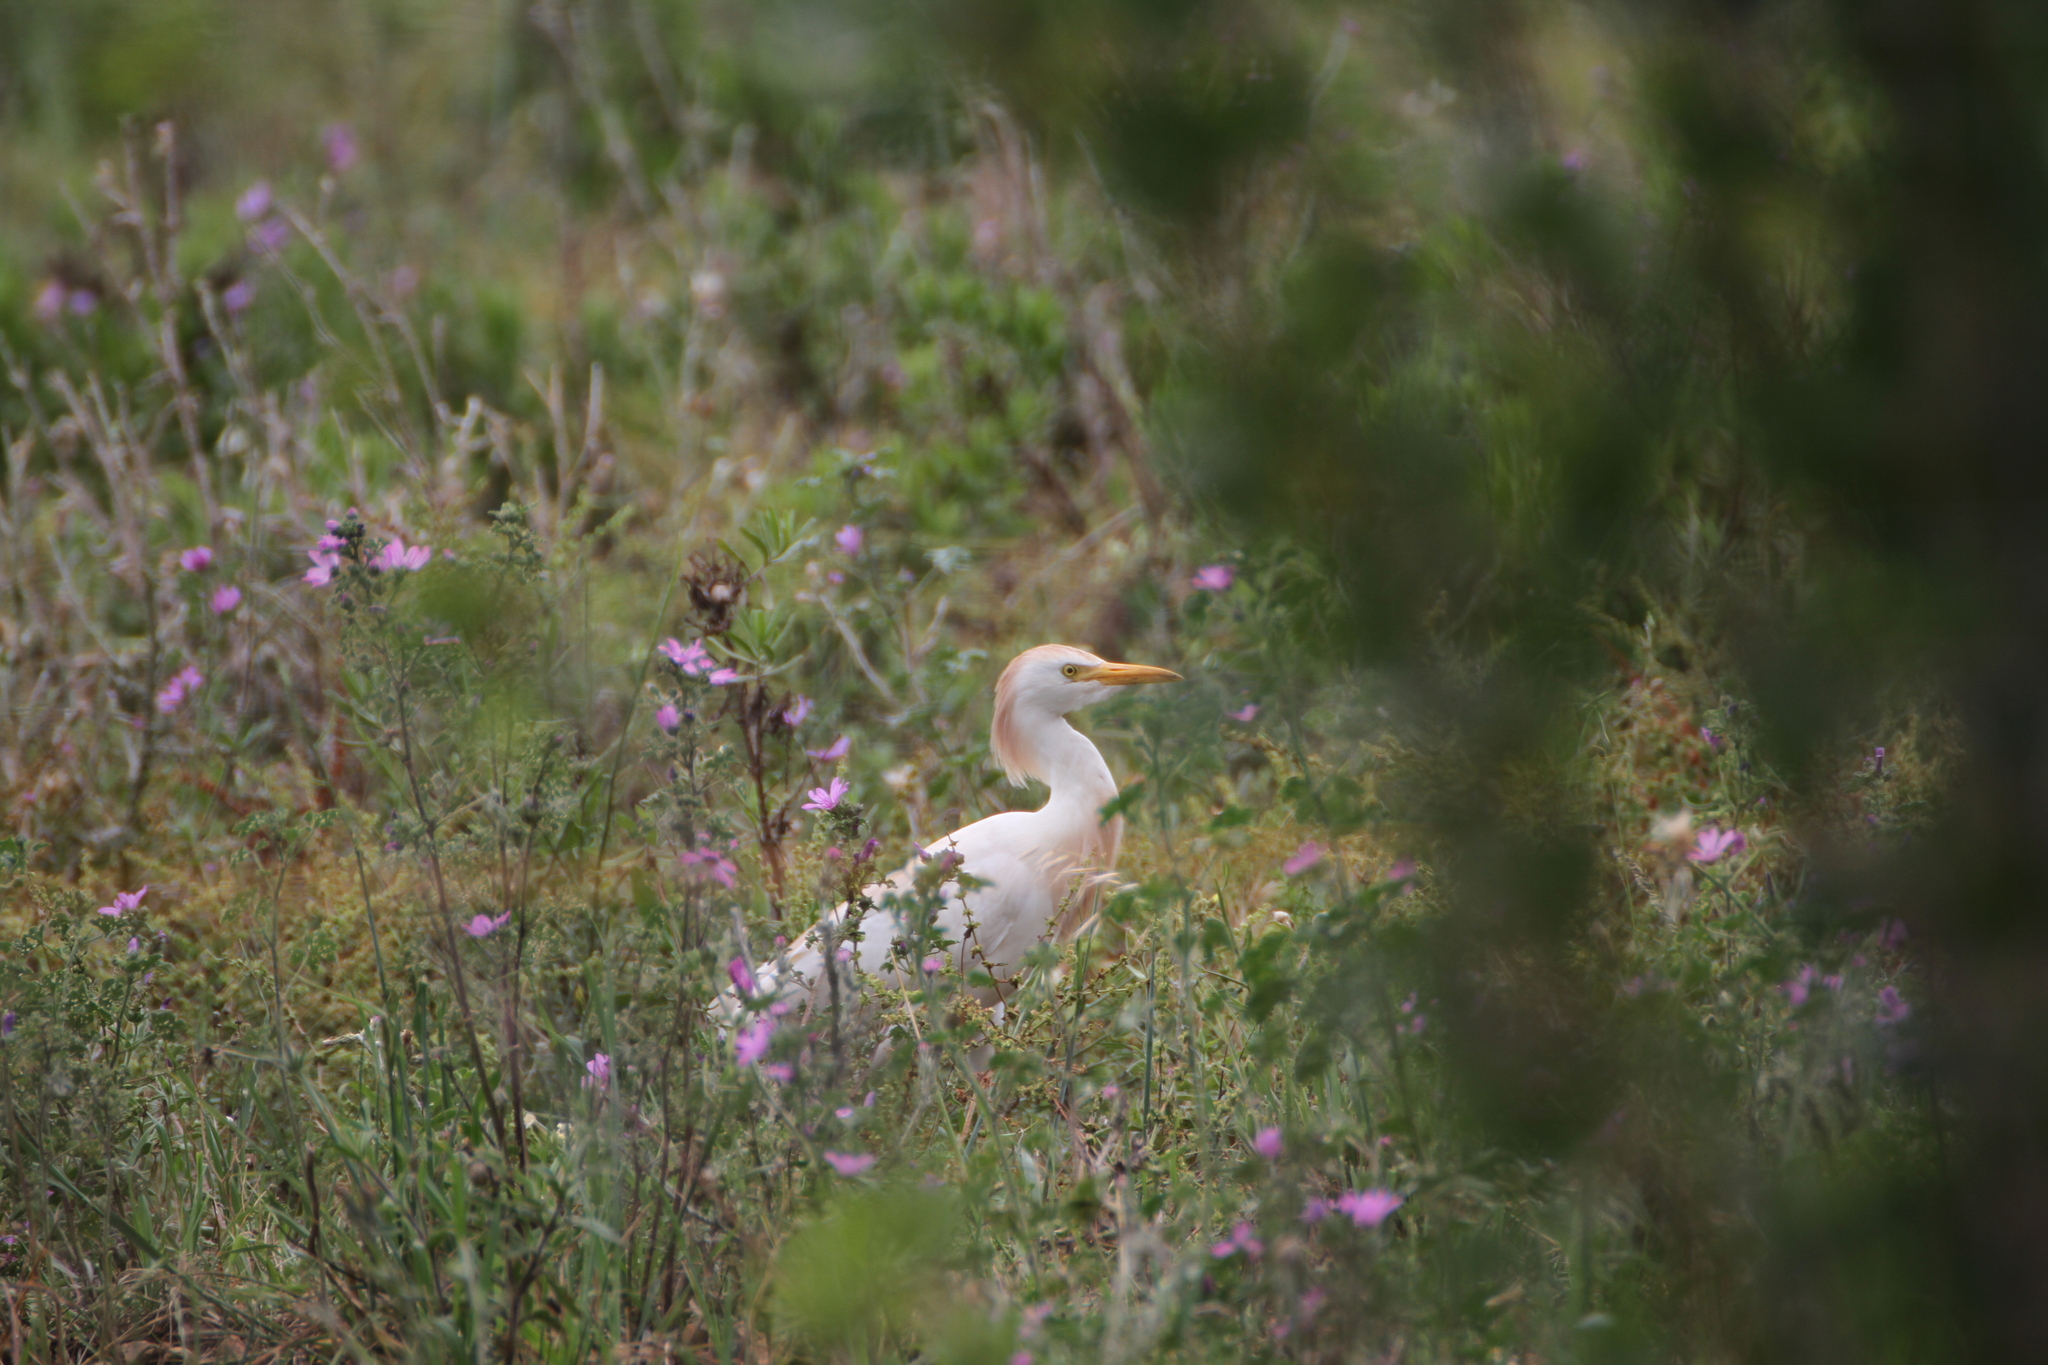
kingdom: Animalia
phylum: Chordata
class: Aves
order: Pelecaniformes
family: Ardeidae
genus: Bubulcus
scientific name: Bubulcus ibis
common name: Cattle egret
